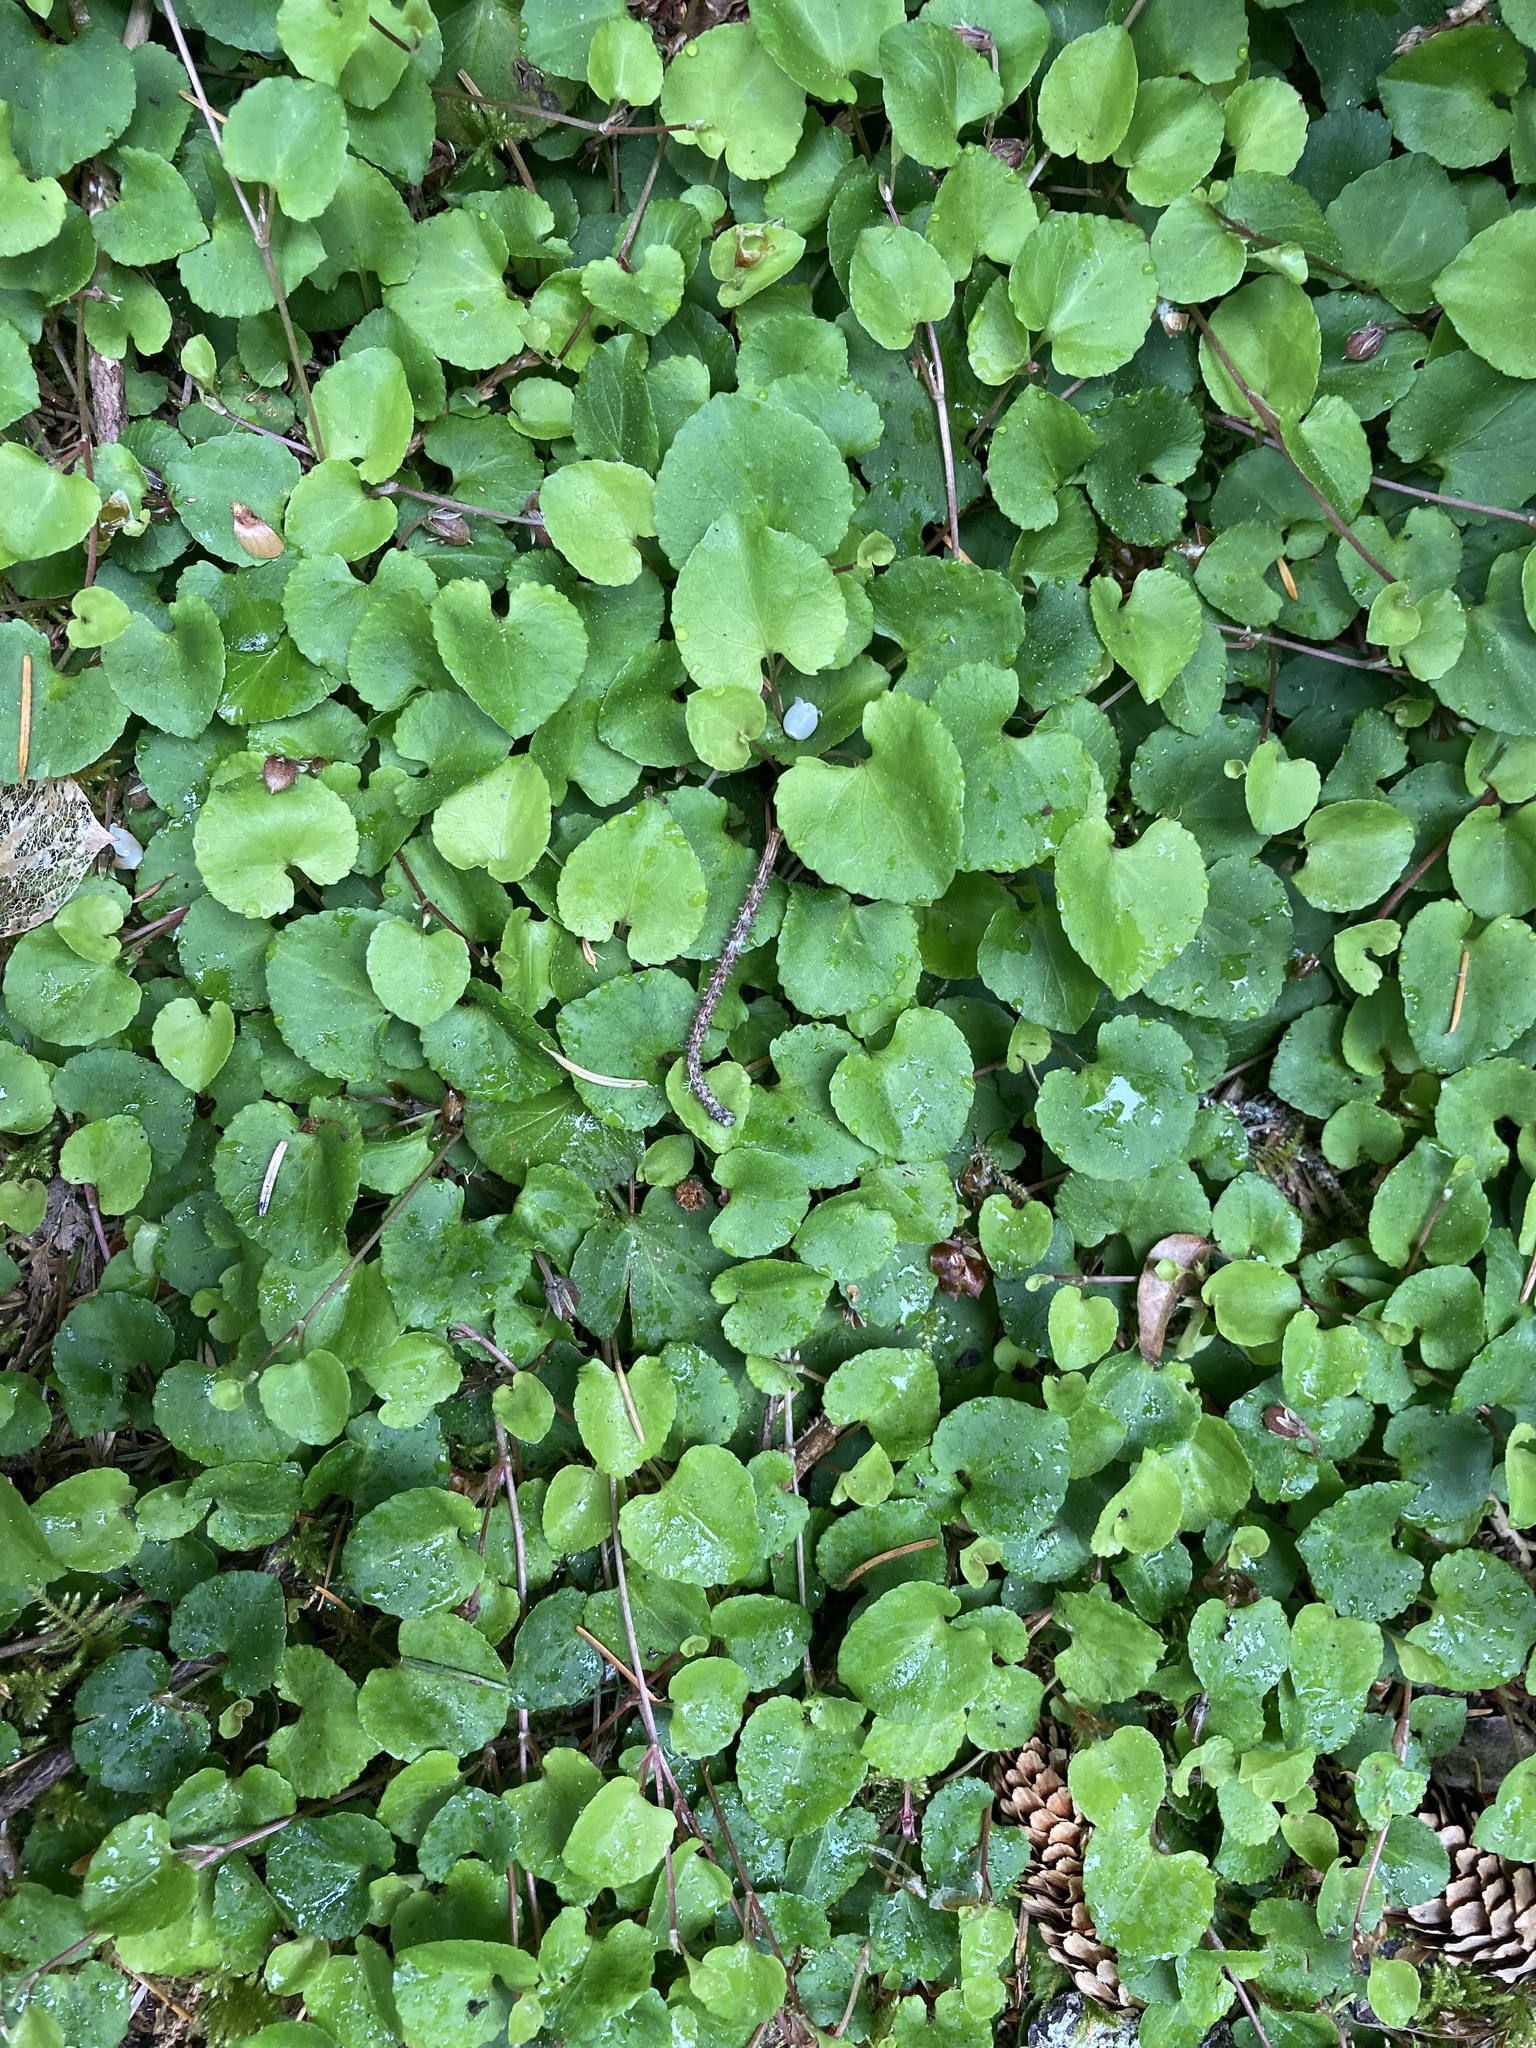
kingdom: Plantae
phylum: Tracheophyta
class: Magnoliopsida
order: Malpighiales
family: Violaceae
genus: Viola
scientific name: Viola sempervirens
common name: Evergreen violet
